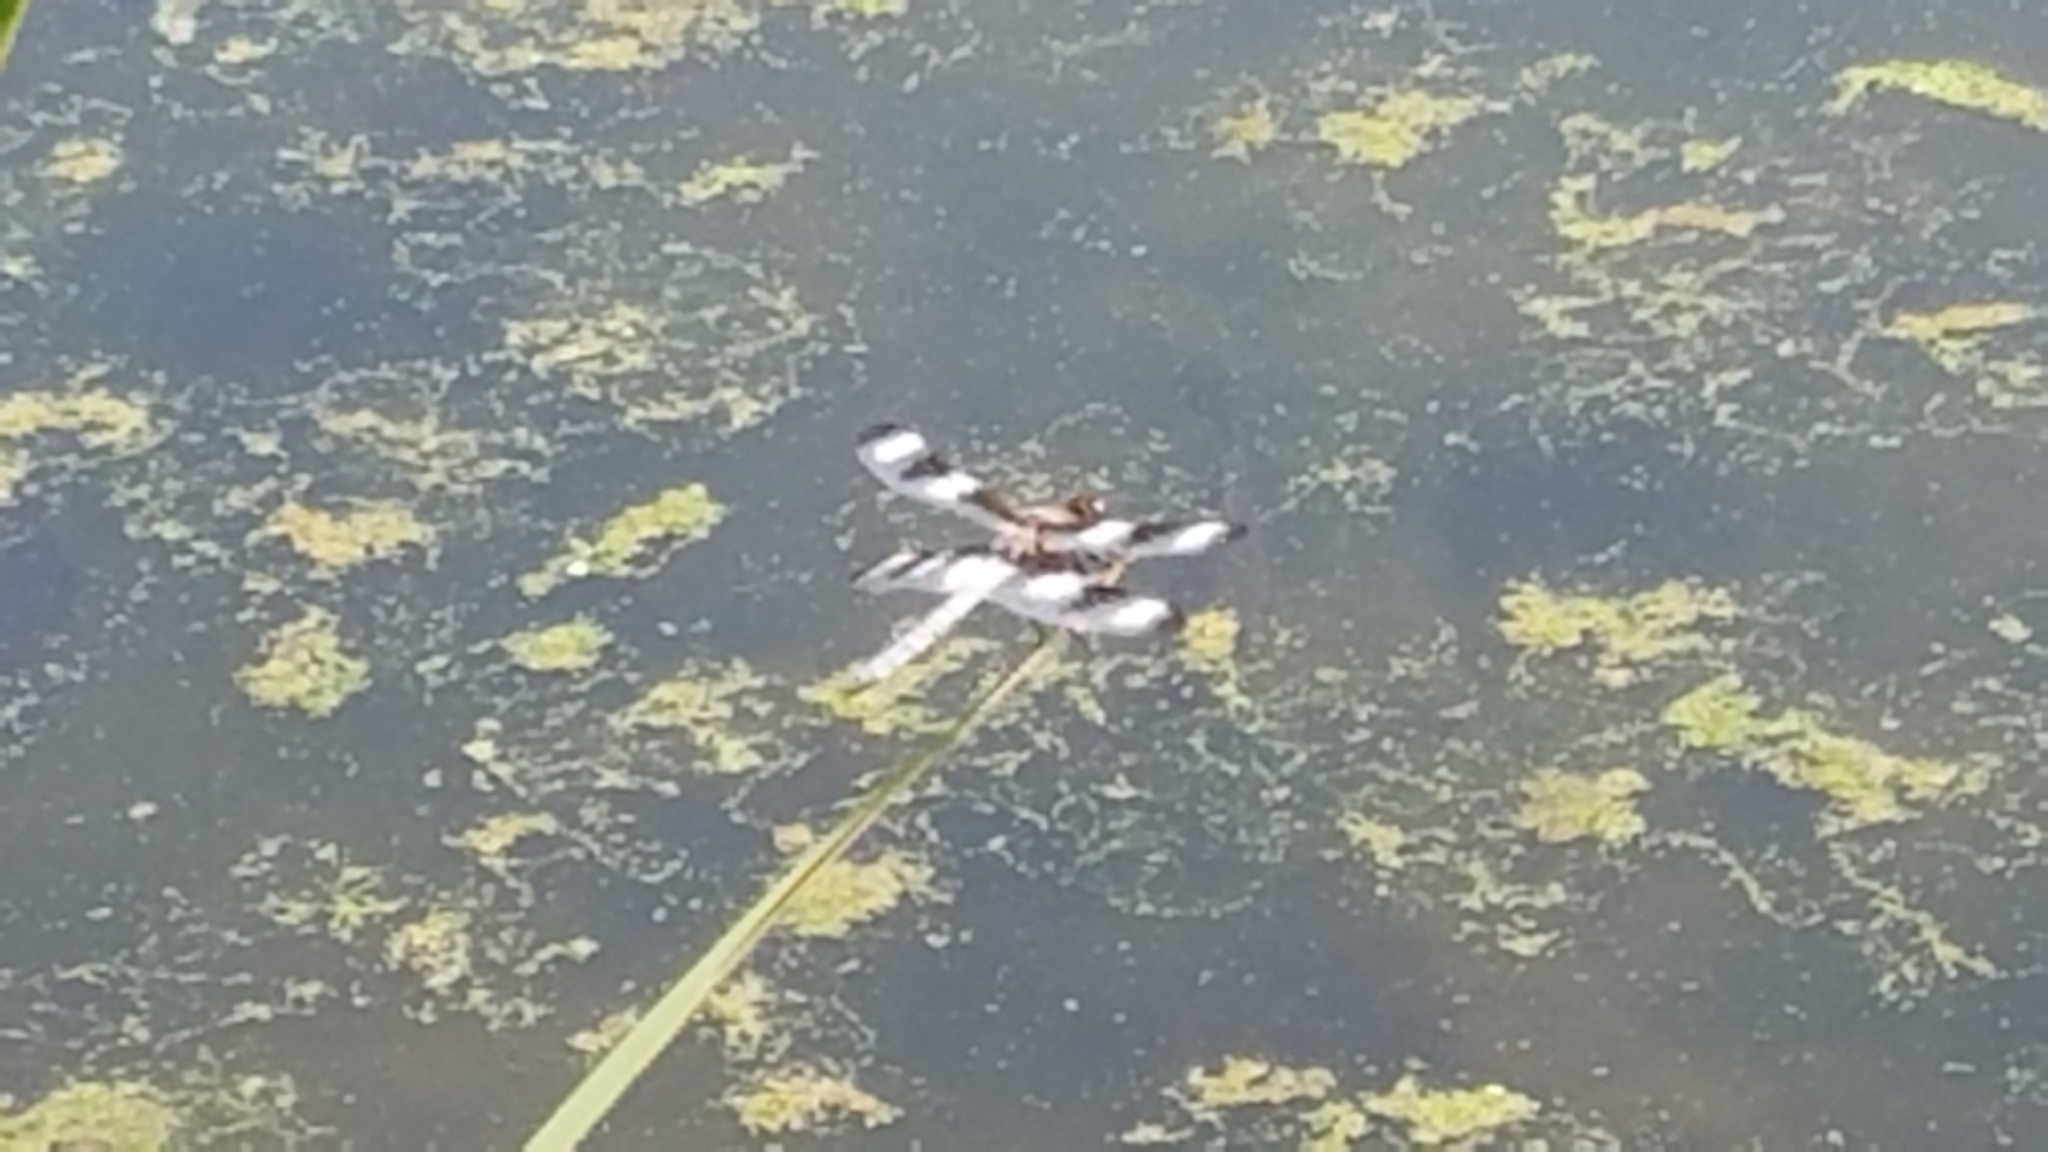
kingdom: Animalia
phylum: Arthropoda
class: Insecta
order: Odonata
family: Libellulidae
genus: Libellula
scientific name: Libellula pulchella
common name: Twelve-spotted skimmer
